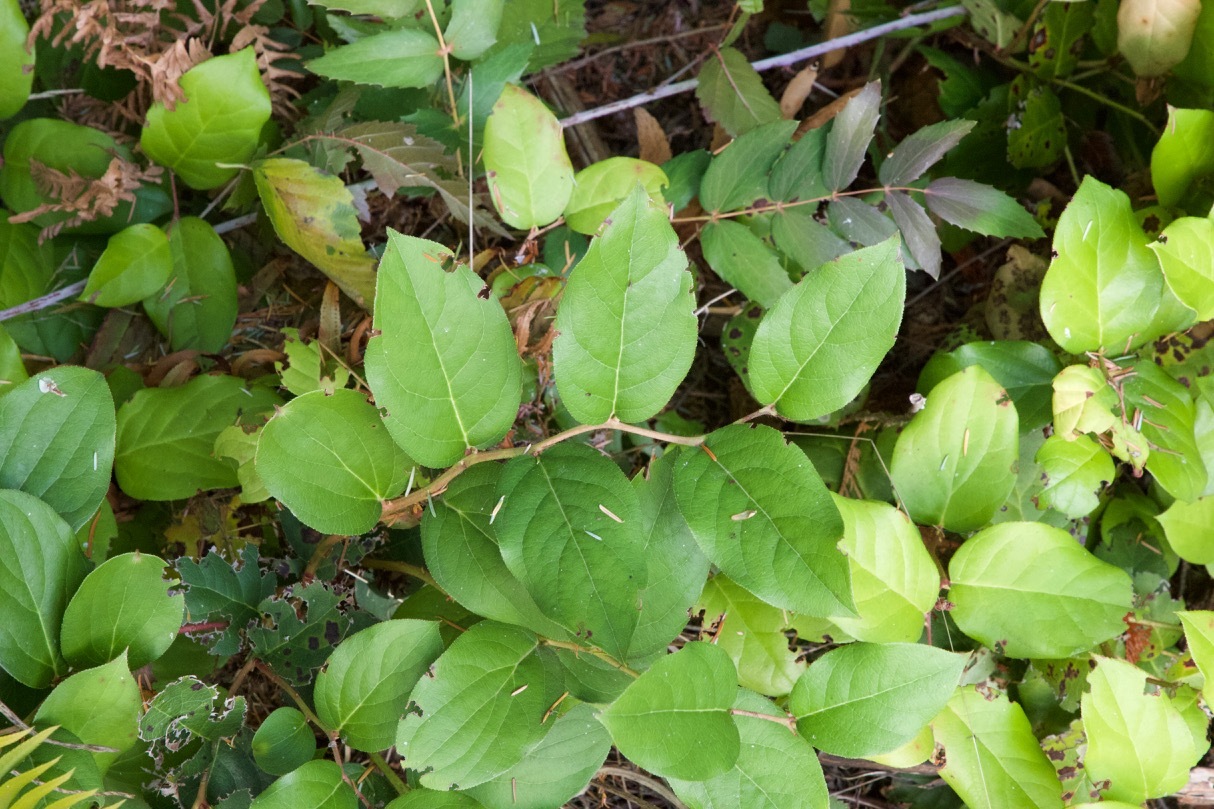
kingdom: Plantae
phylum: Tracheophyta
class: Magnoliopsida
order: Ericales
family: Ericaceae
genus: Gaultheria
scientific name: Gaultheria shallon
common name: Shallon
